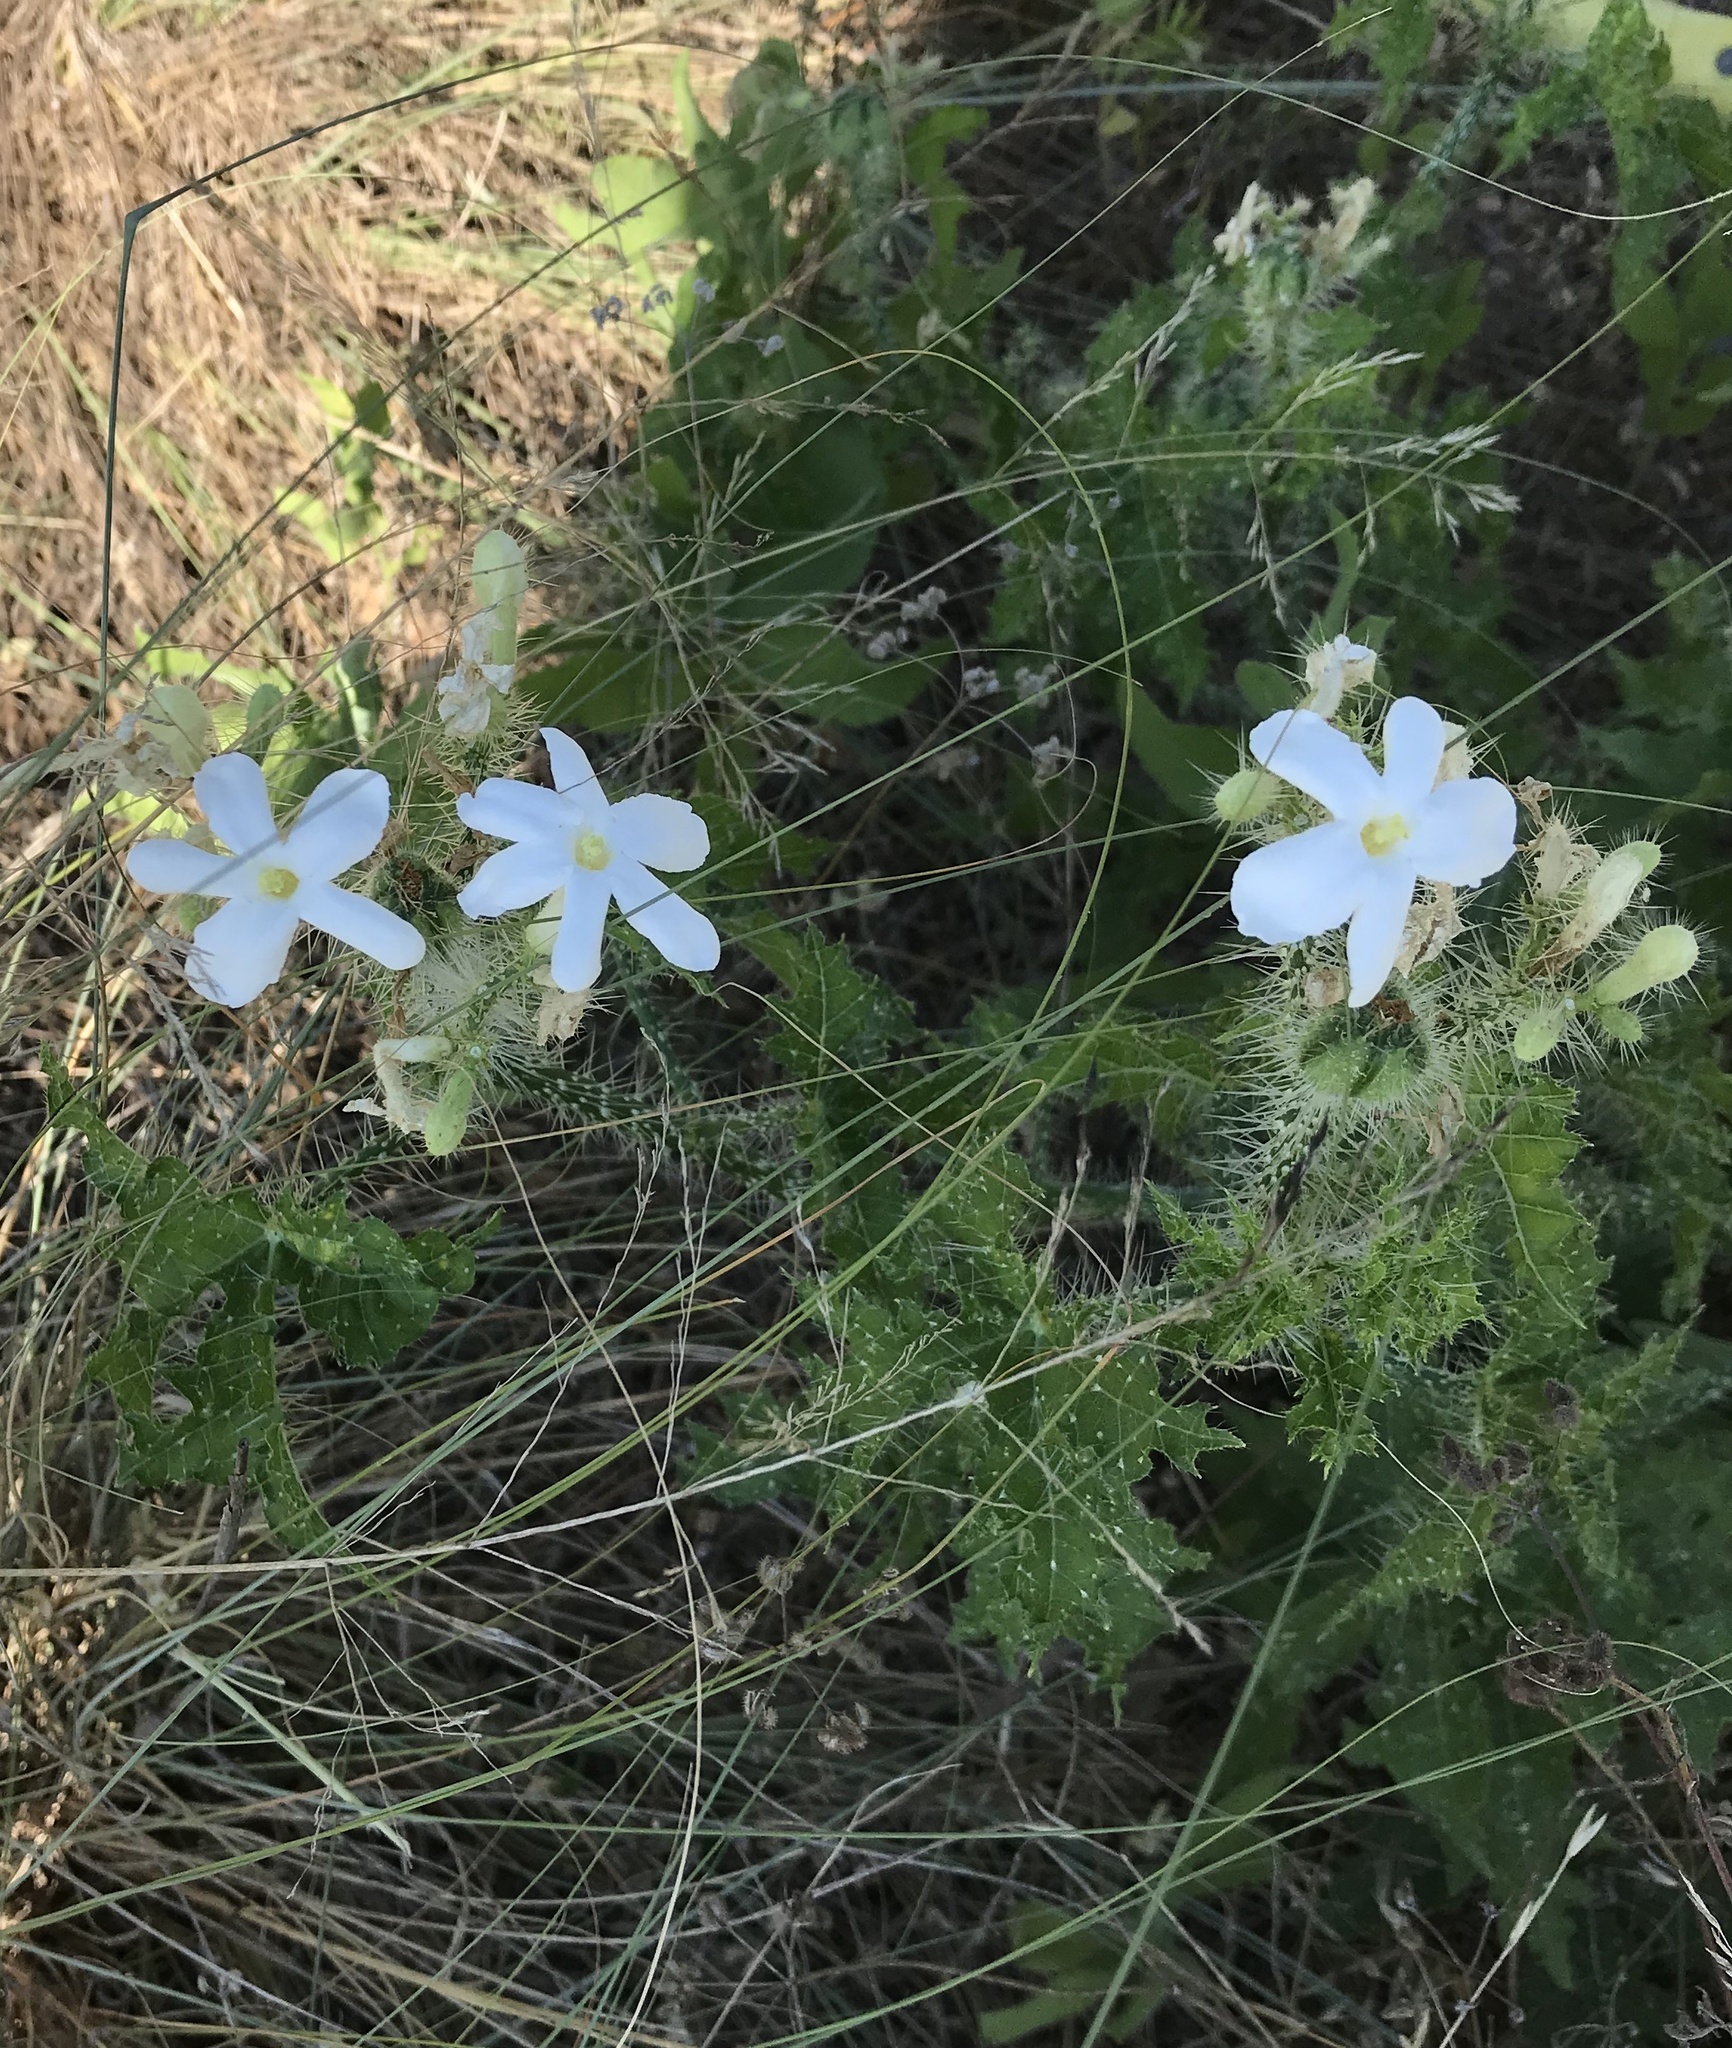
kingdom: Plantae
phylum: Tracheophyta
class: Magnoliopsida
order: Malpighiales
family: Euphorbiaceae
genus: Cnidoscolus
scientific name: Cnidoscolus texanus
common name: Texas bull-nettle
